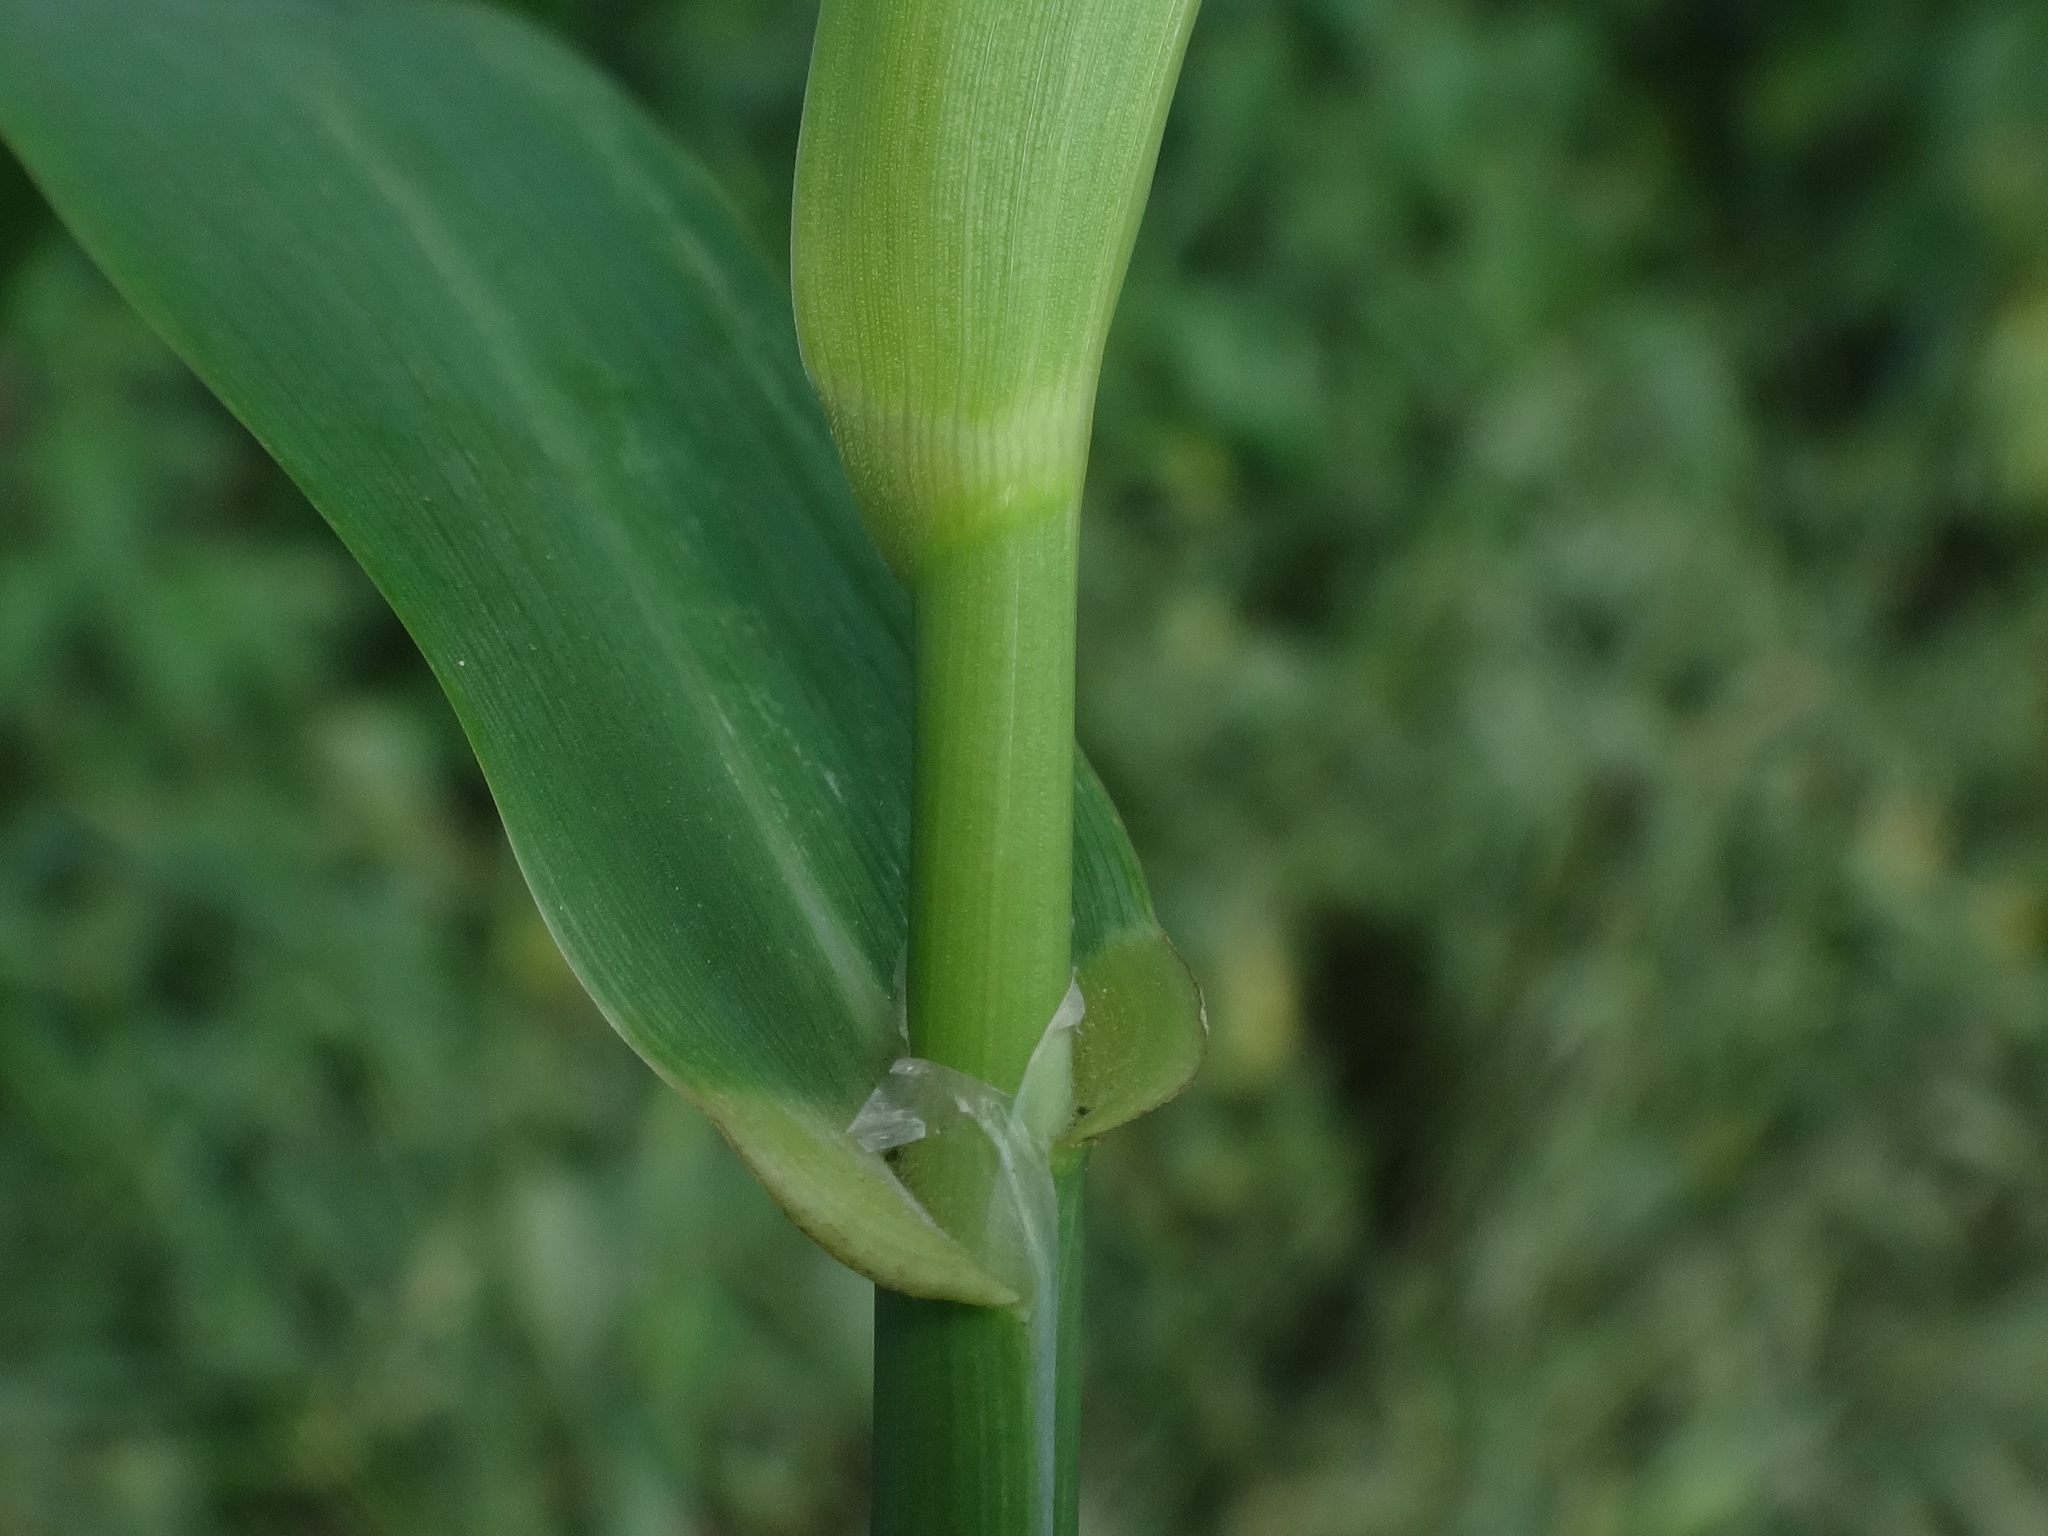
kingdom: Plantae
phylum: Tracheophyta
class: Liliopsida
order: Poales
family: Poaceae
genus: Phalaris
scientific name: Phalaris arundinacea
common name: Reed canary-grass
